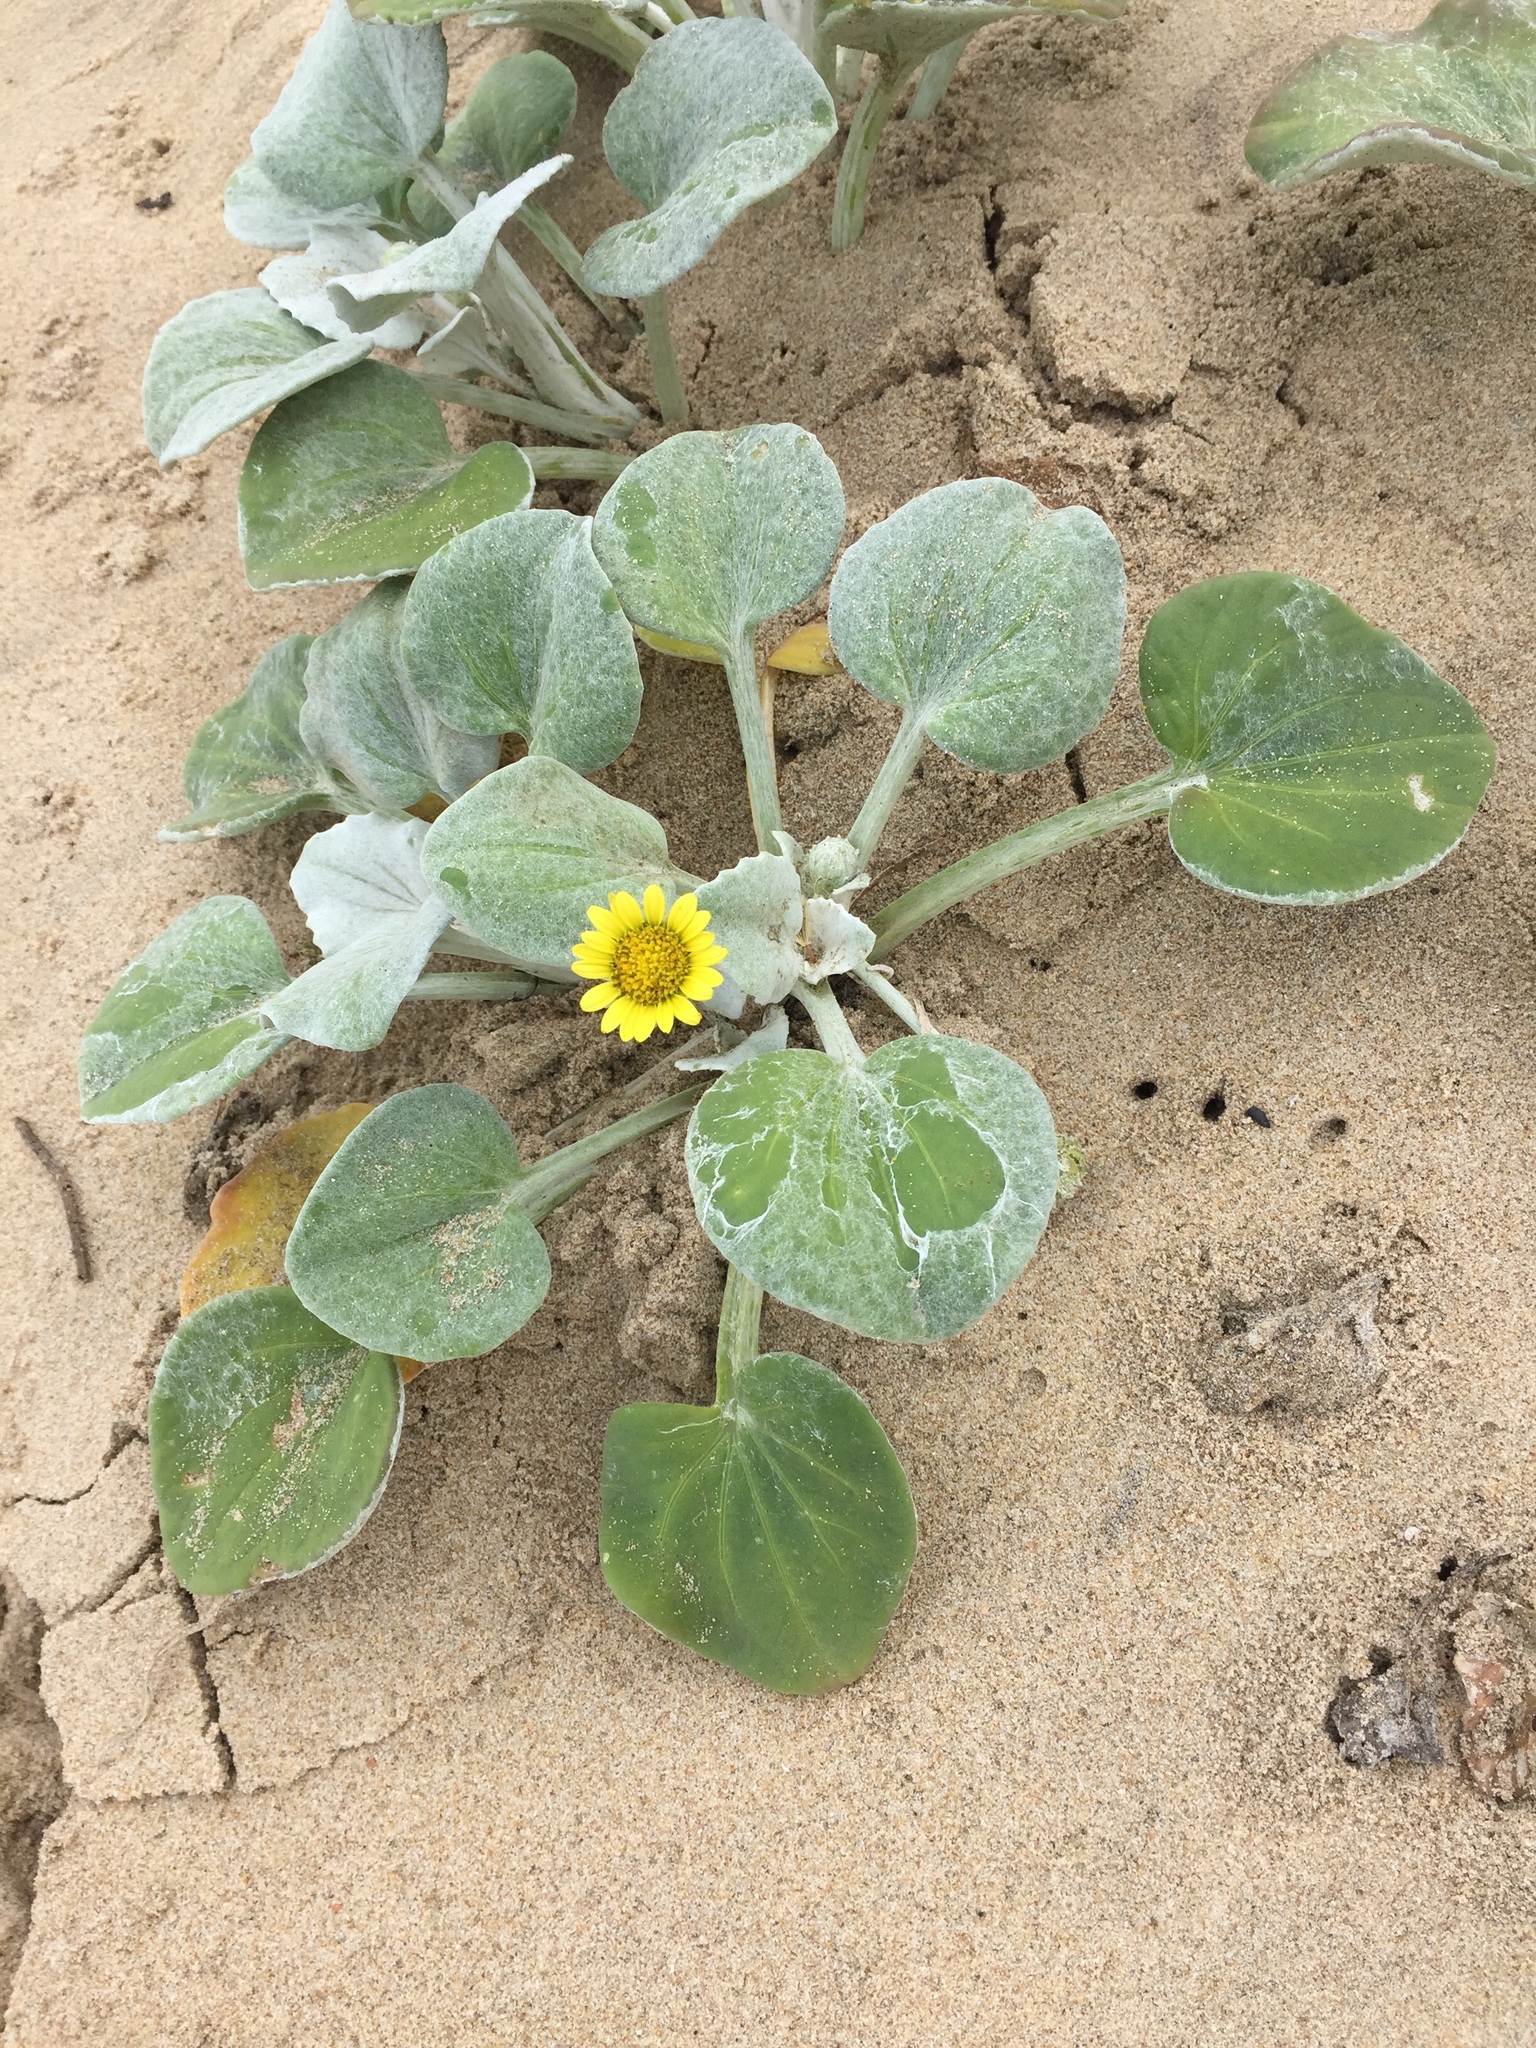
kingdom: Plantae
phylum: Tracheophyta
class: Magnoliopsida
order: Asterales
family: Asteraceae
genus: Arctotheca
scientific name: Arctotheca populifolia
